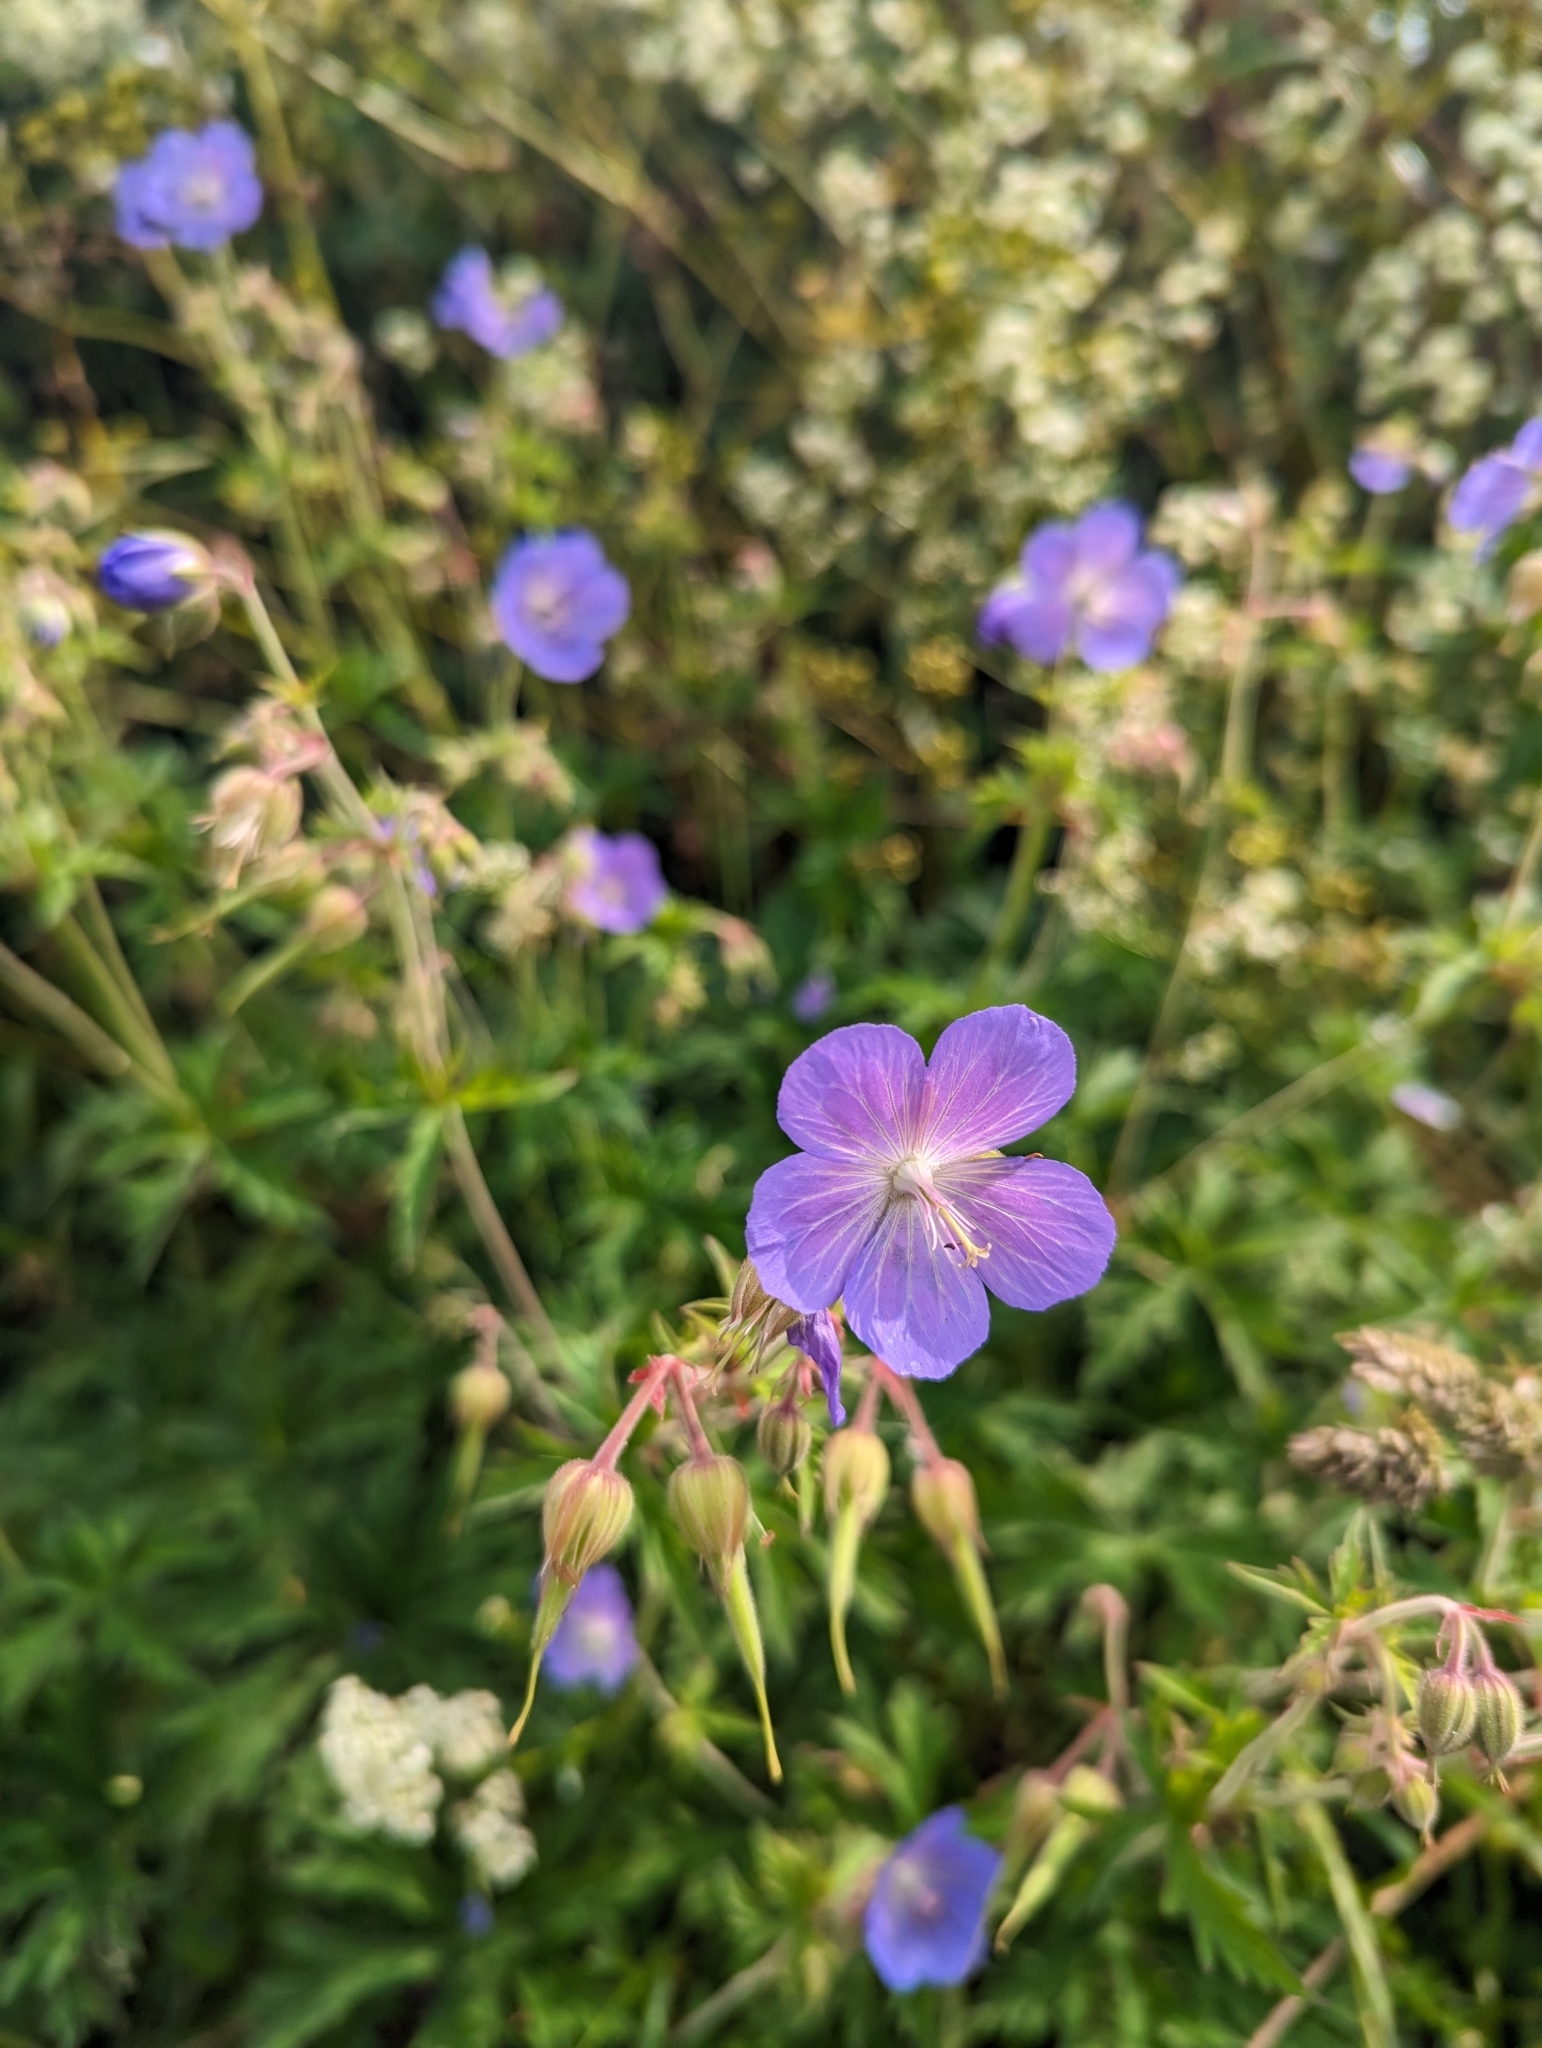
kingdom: Plantae
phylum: Tracheophyta
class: Magnoliopsida
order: Geraniales
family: Geraniaceae
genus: Geranium
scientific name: Geranium pratense
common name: Meadow crane's-bill
